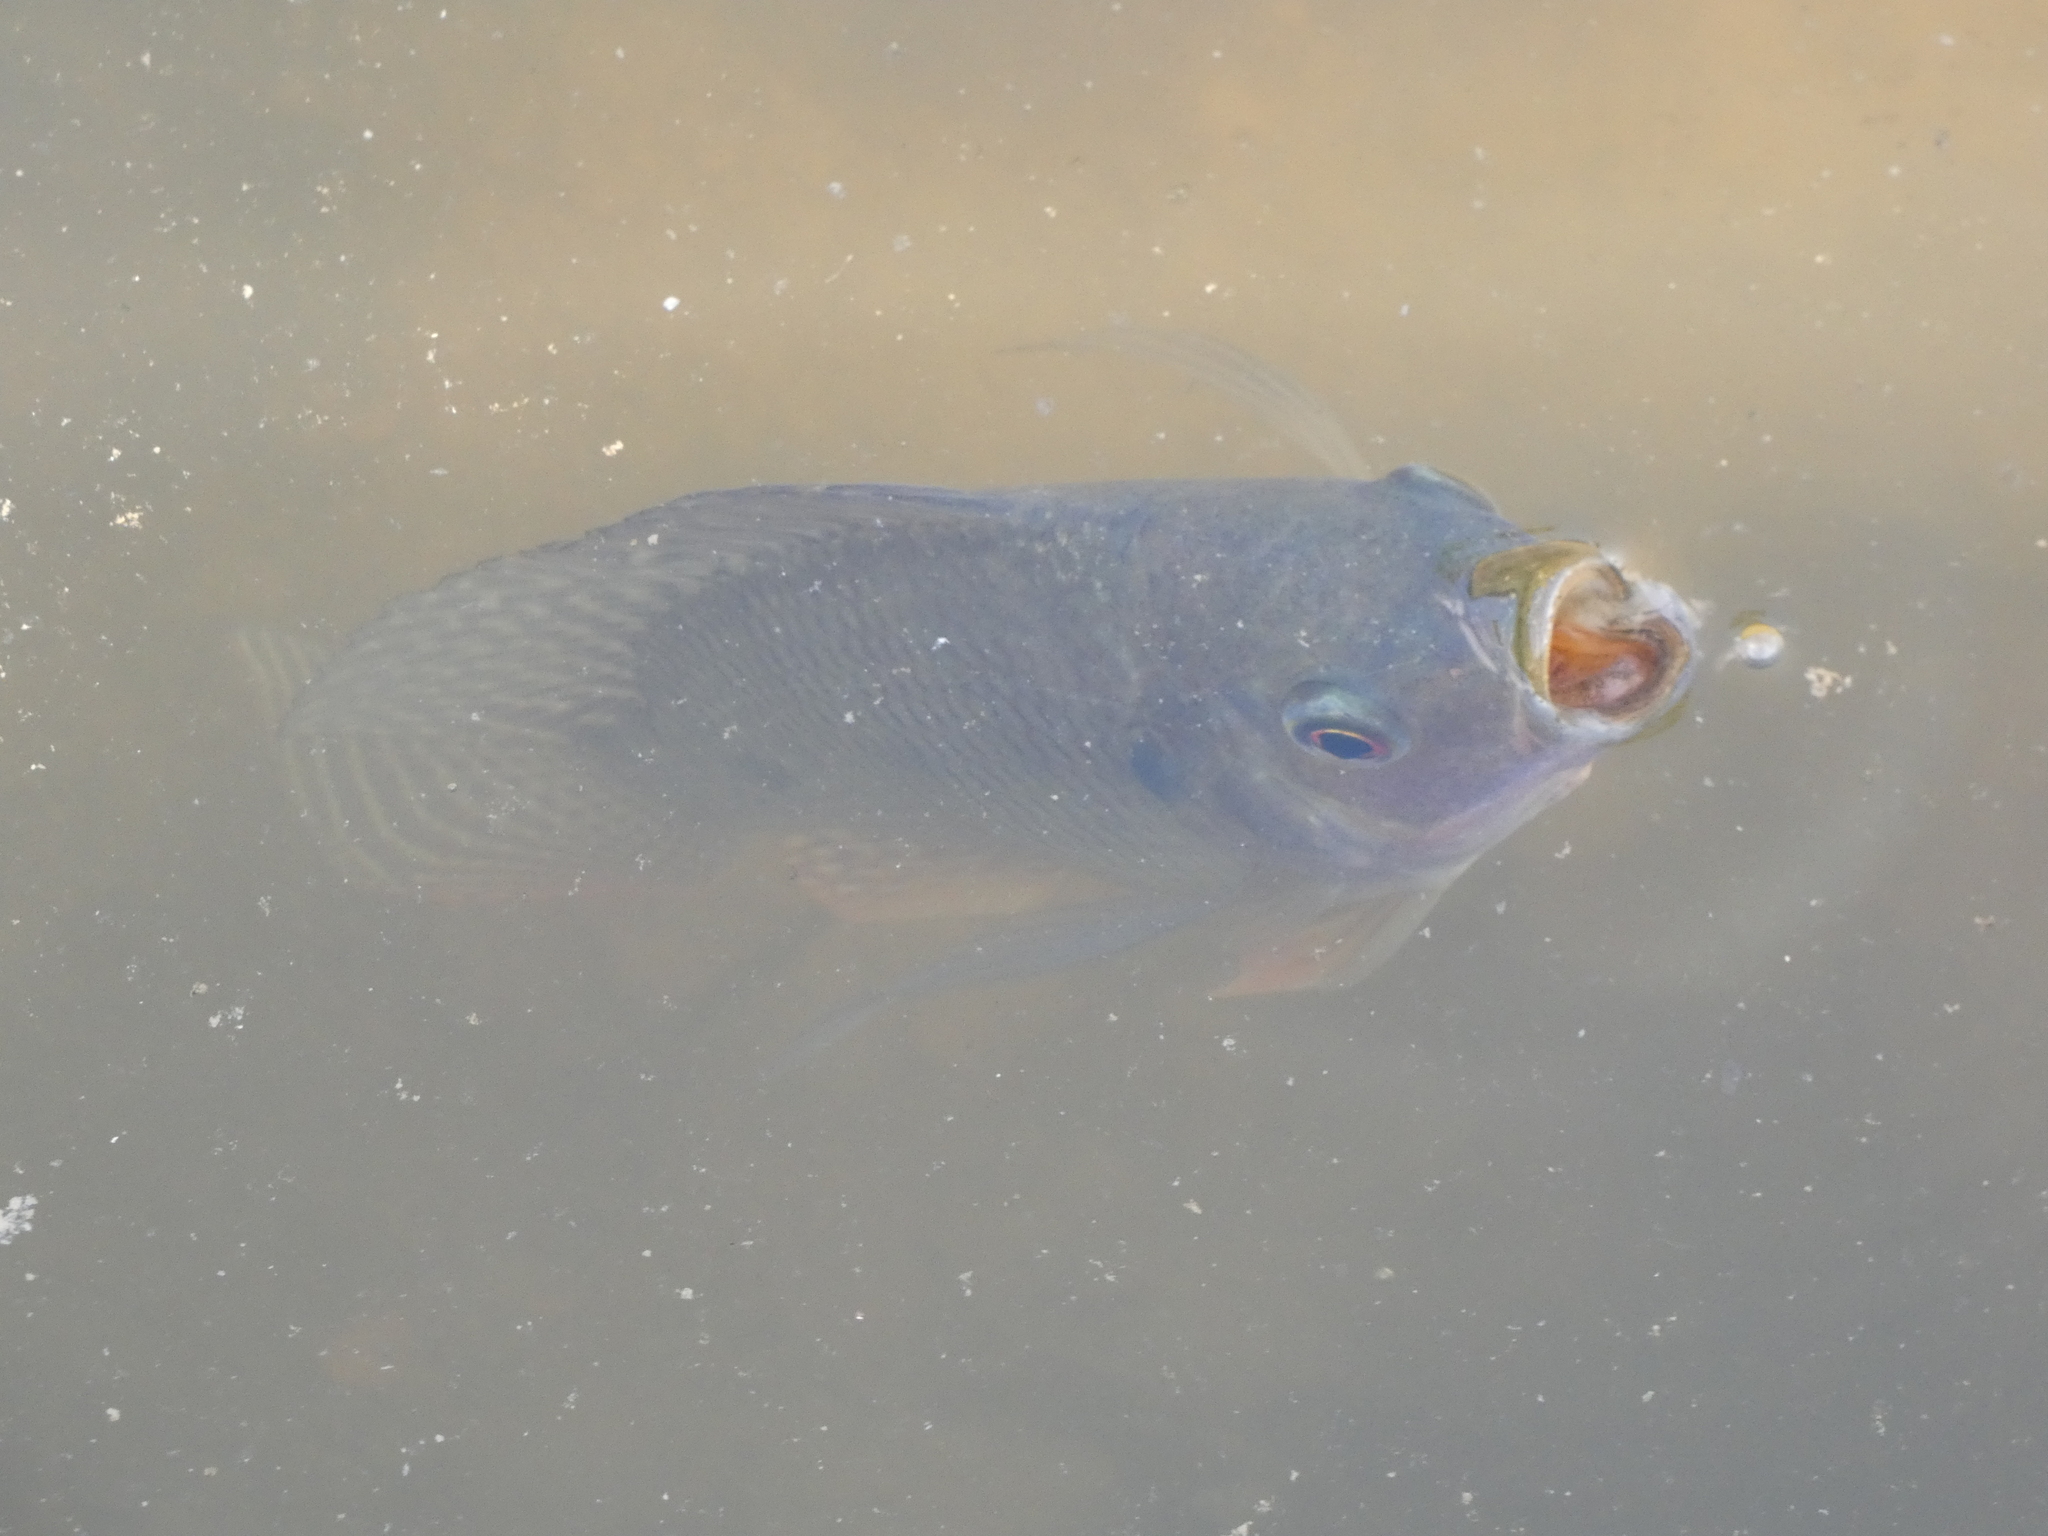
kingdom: Animalia
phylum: Chordata
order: Perciformes
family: Cichlidae
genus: Oreochromis
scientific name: Oreochromis niloticus
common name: Nile tilapia
